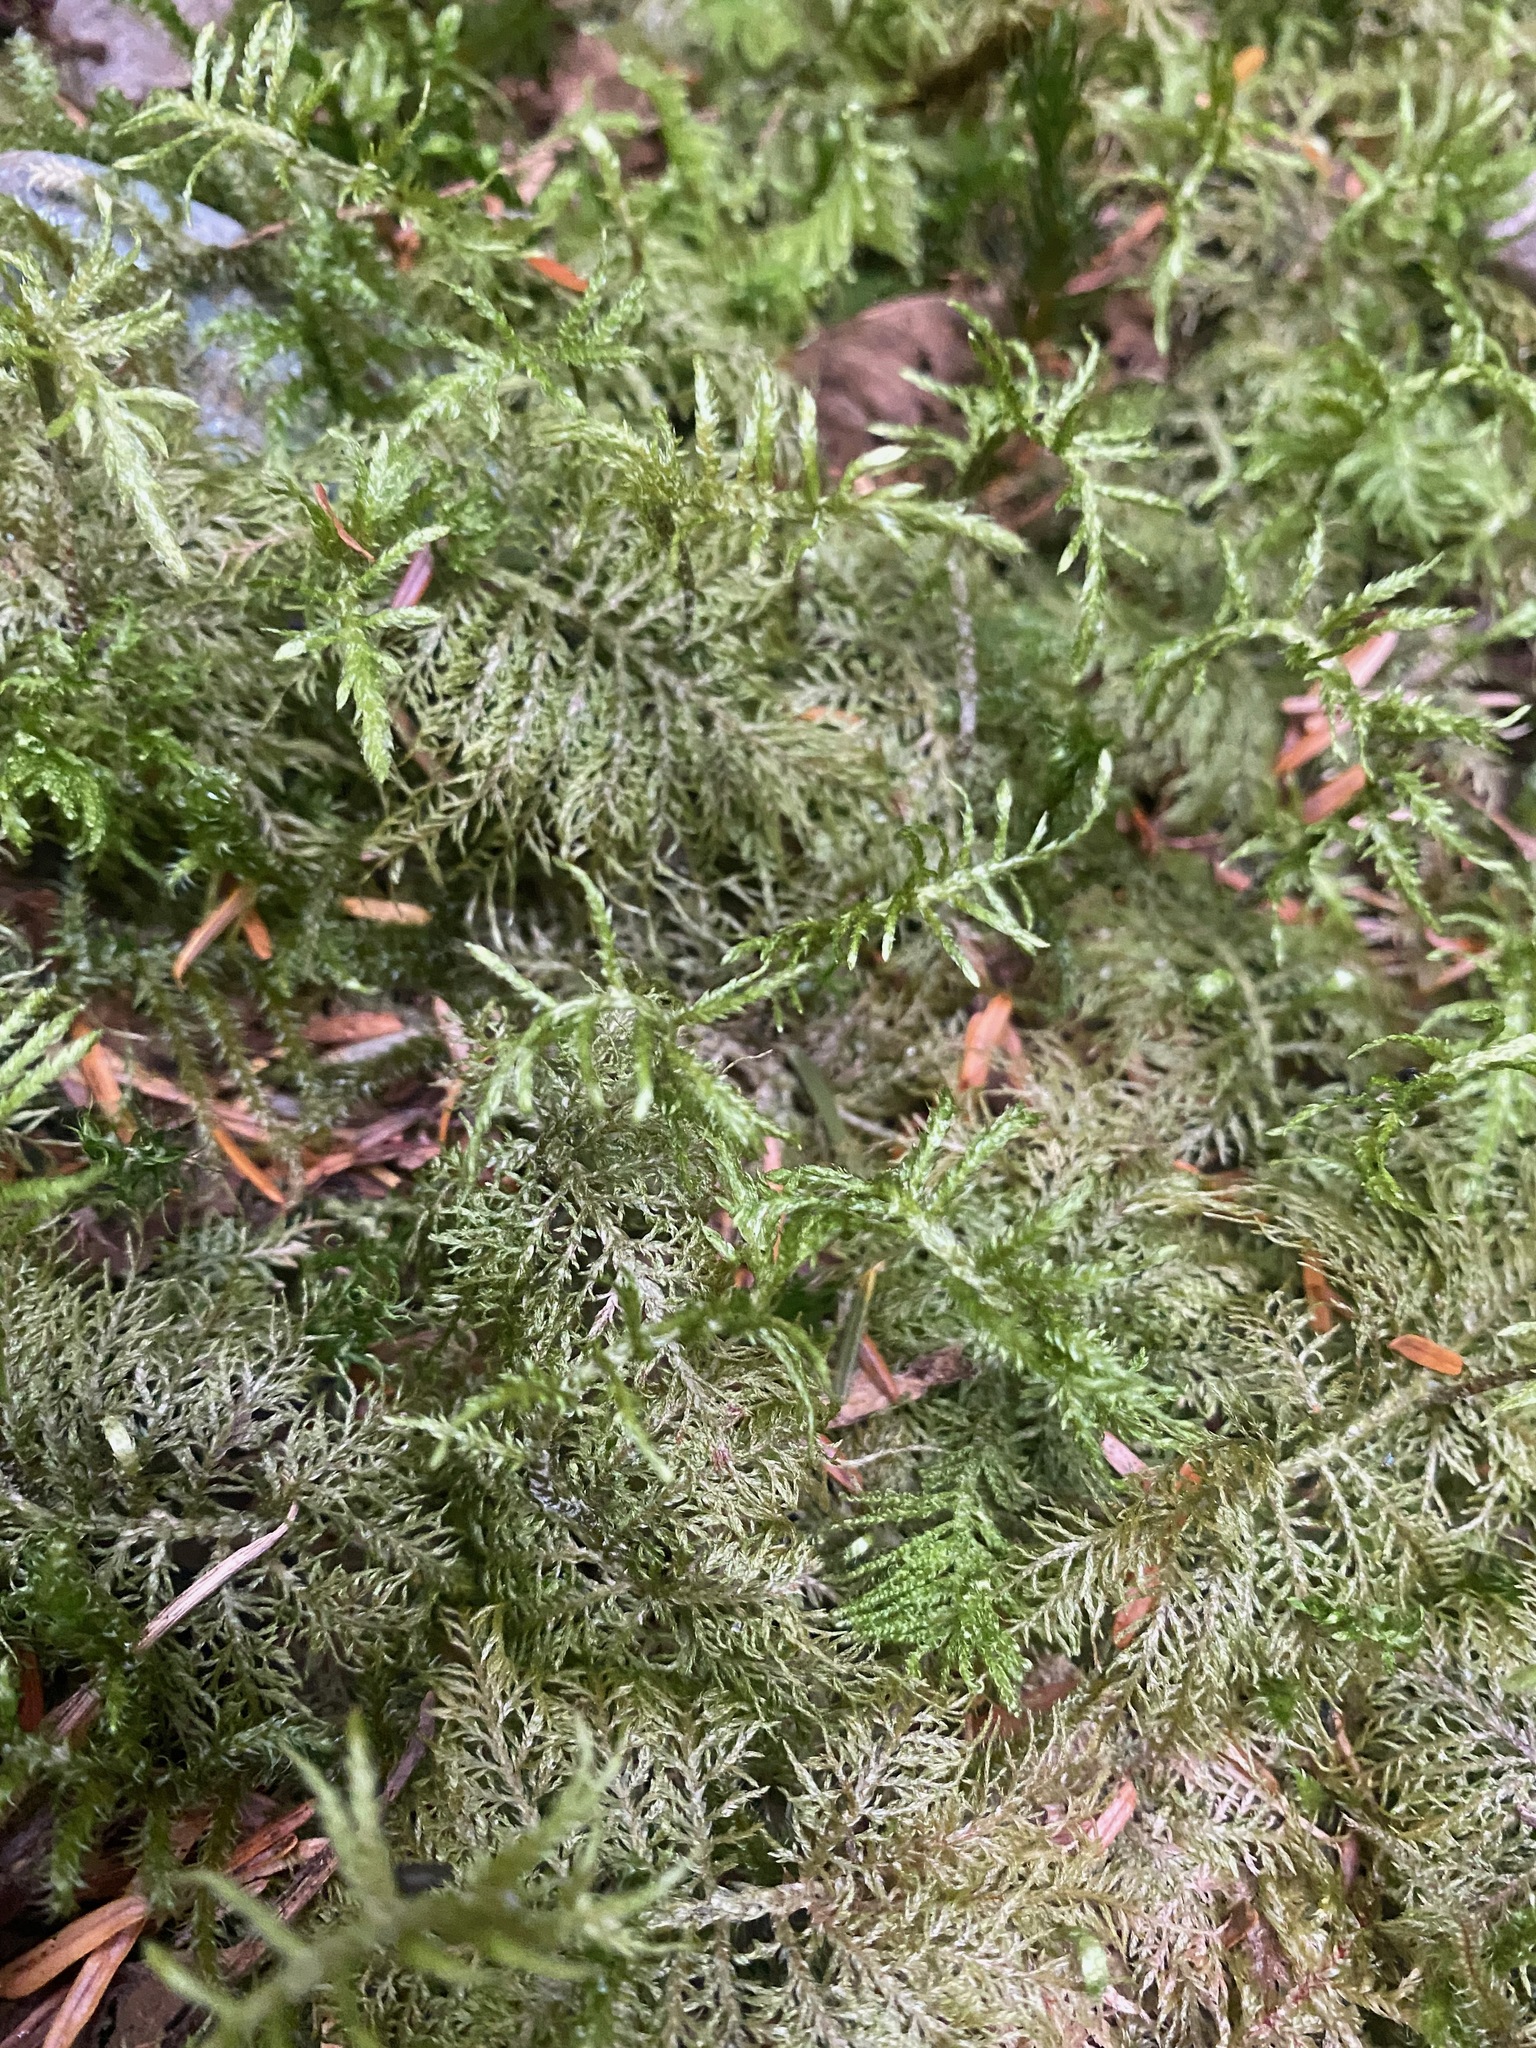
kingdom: Plantae
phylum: Bryophyta
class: Bryopsida
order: Hypnales
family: Hylocomiaceae
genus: Hylocomium
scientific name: Hylocomium splendens
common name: Stairstep moss
